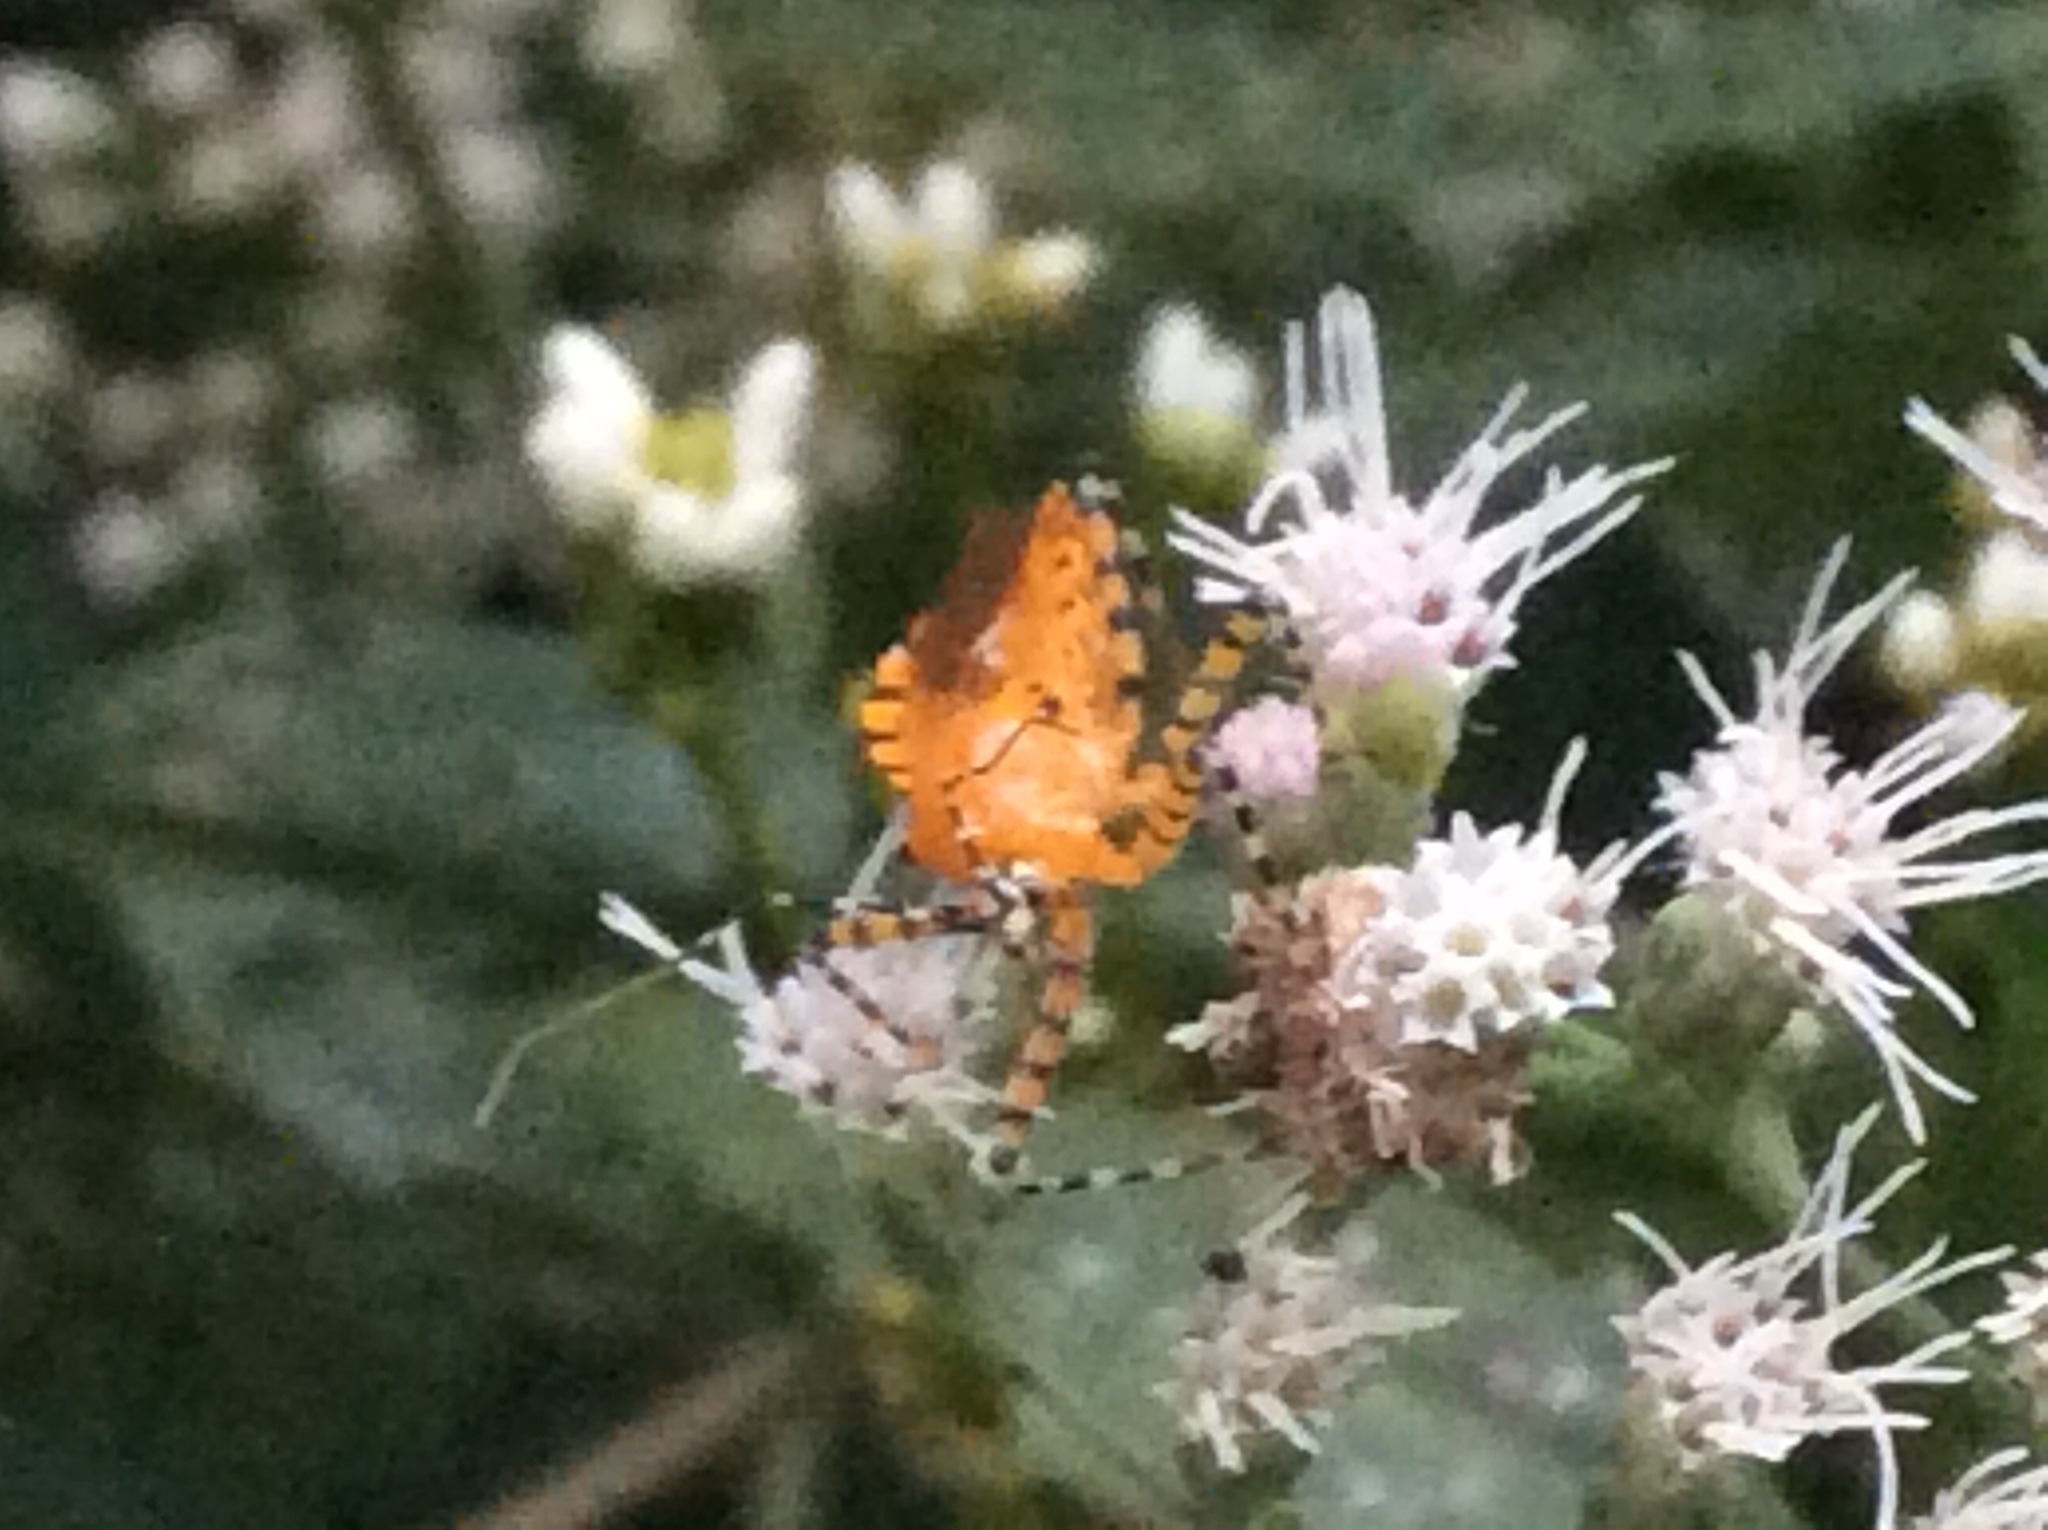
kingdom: Animalia
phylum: Arthropoda
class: Insecta
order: Hemiptera
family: Reduviidae
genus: Pselliopus
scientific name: Pselliopus barberi
